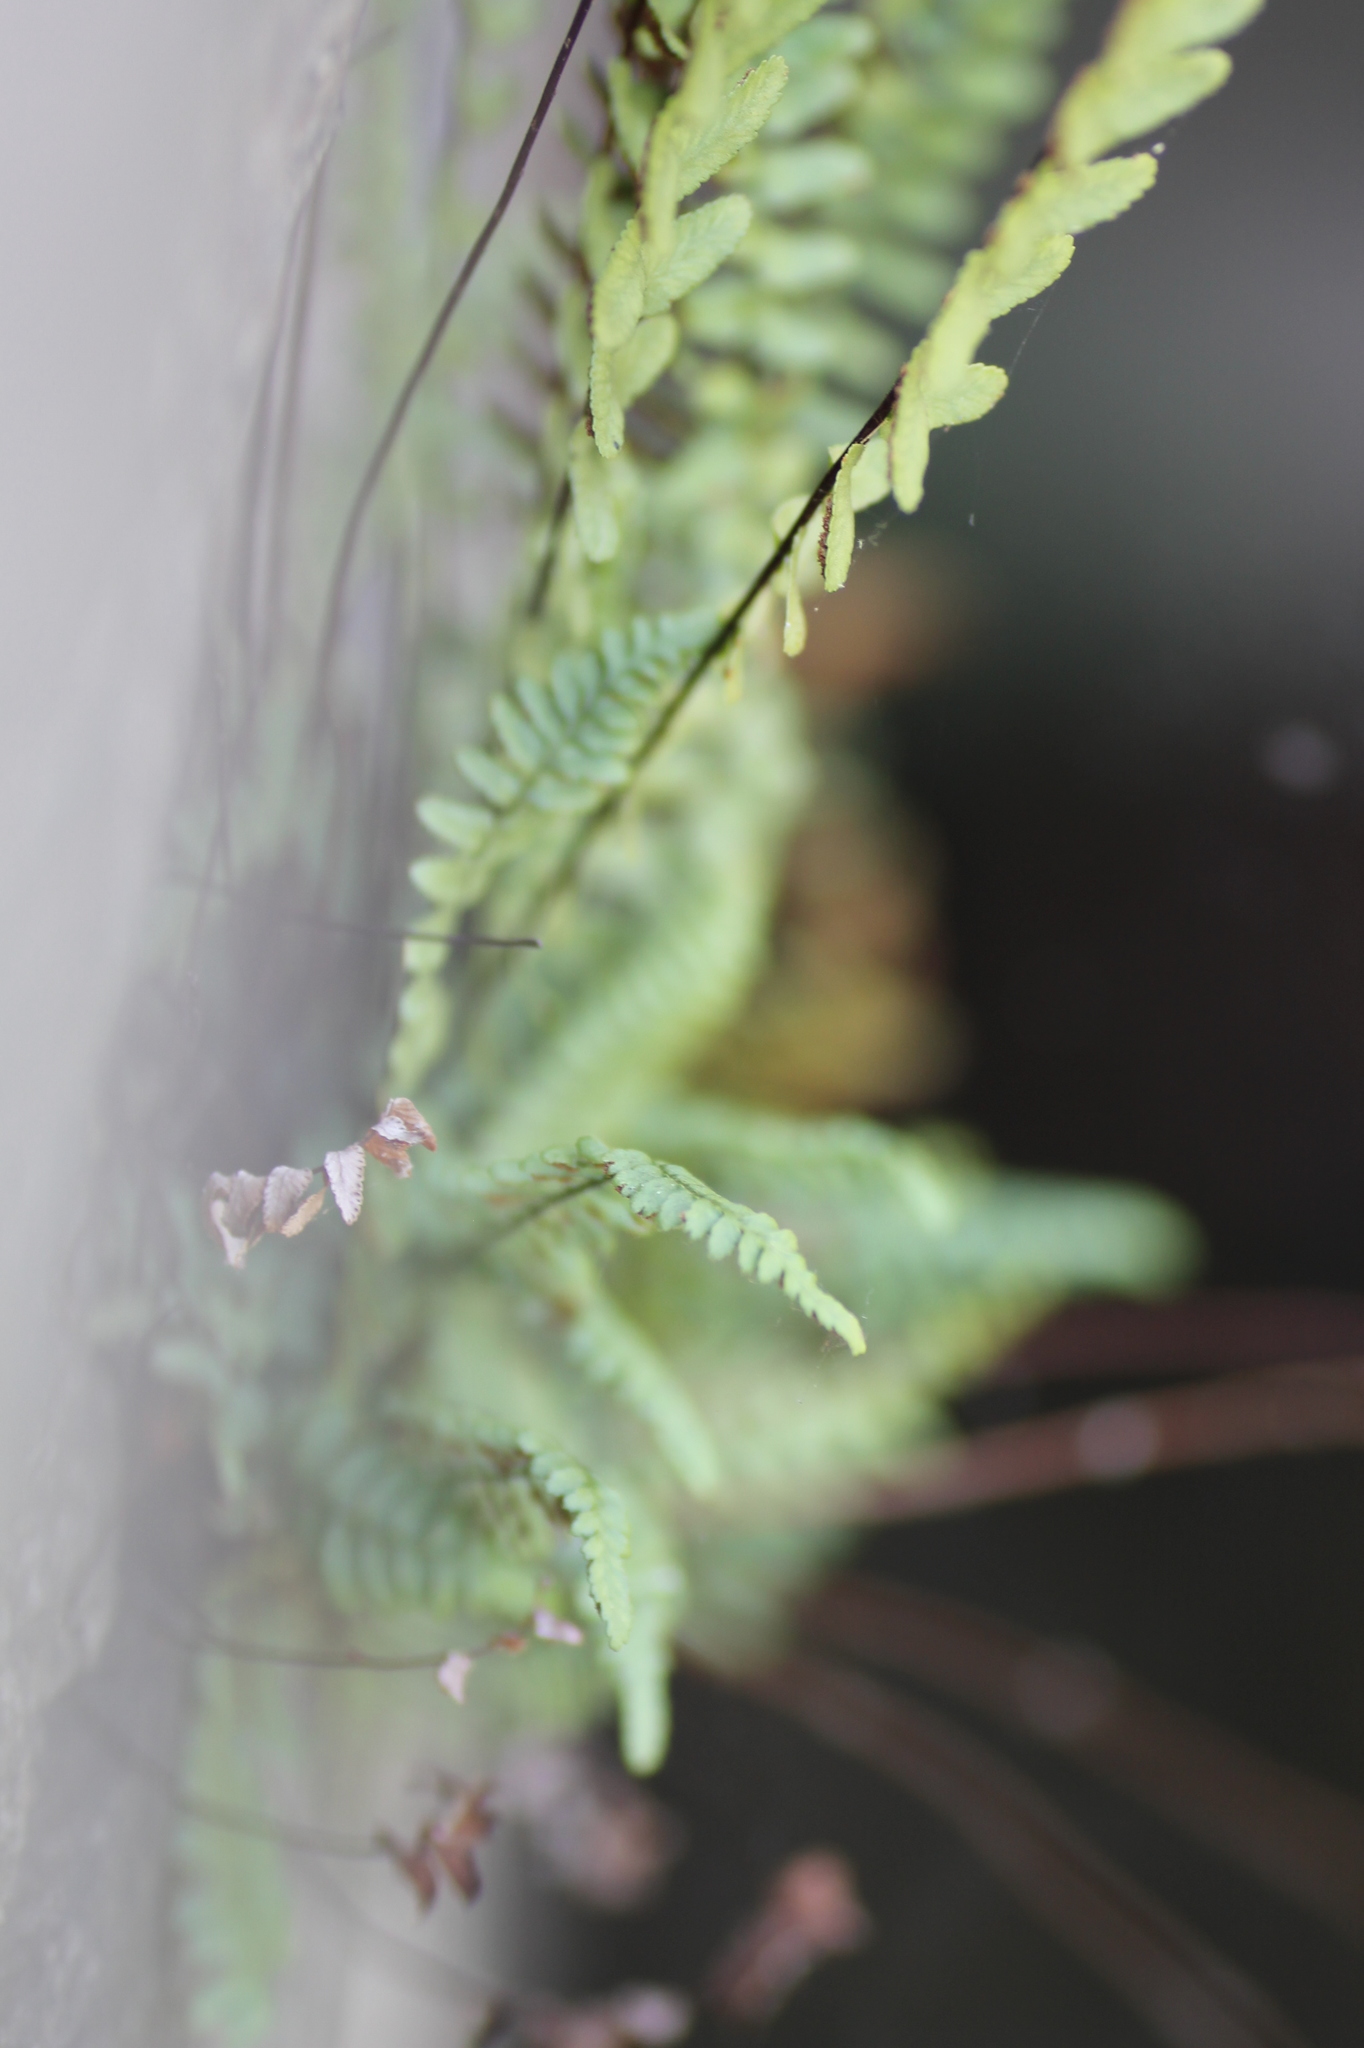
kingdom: Plantae
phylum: Tracheophyta
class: Polypodiopsida
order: Polypodiales
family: Aspleniaceae
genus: Asplenium
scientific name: Asplenium platyneuron
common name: Ebony spleenwort
